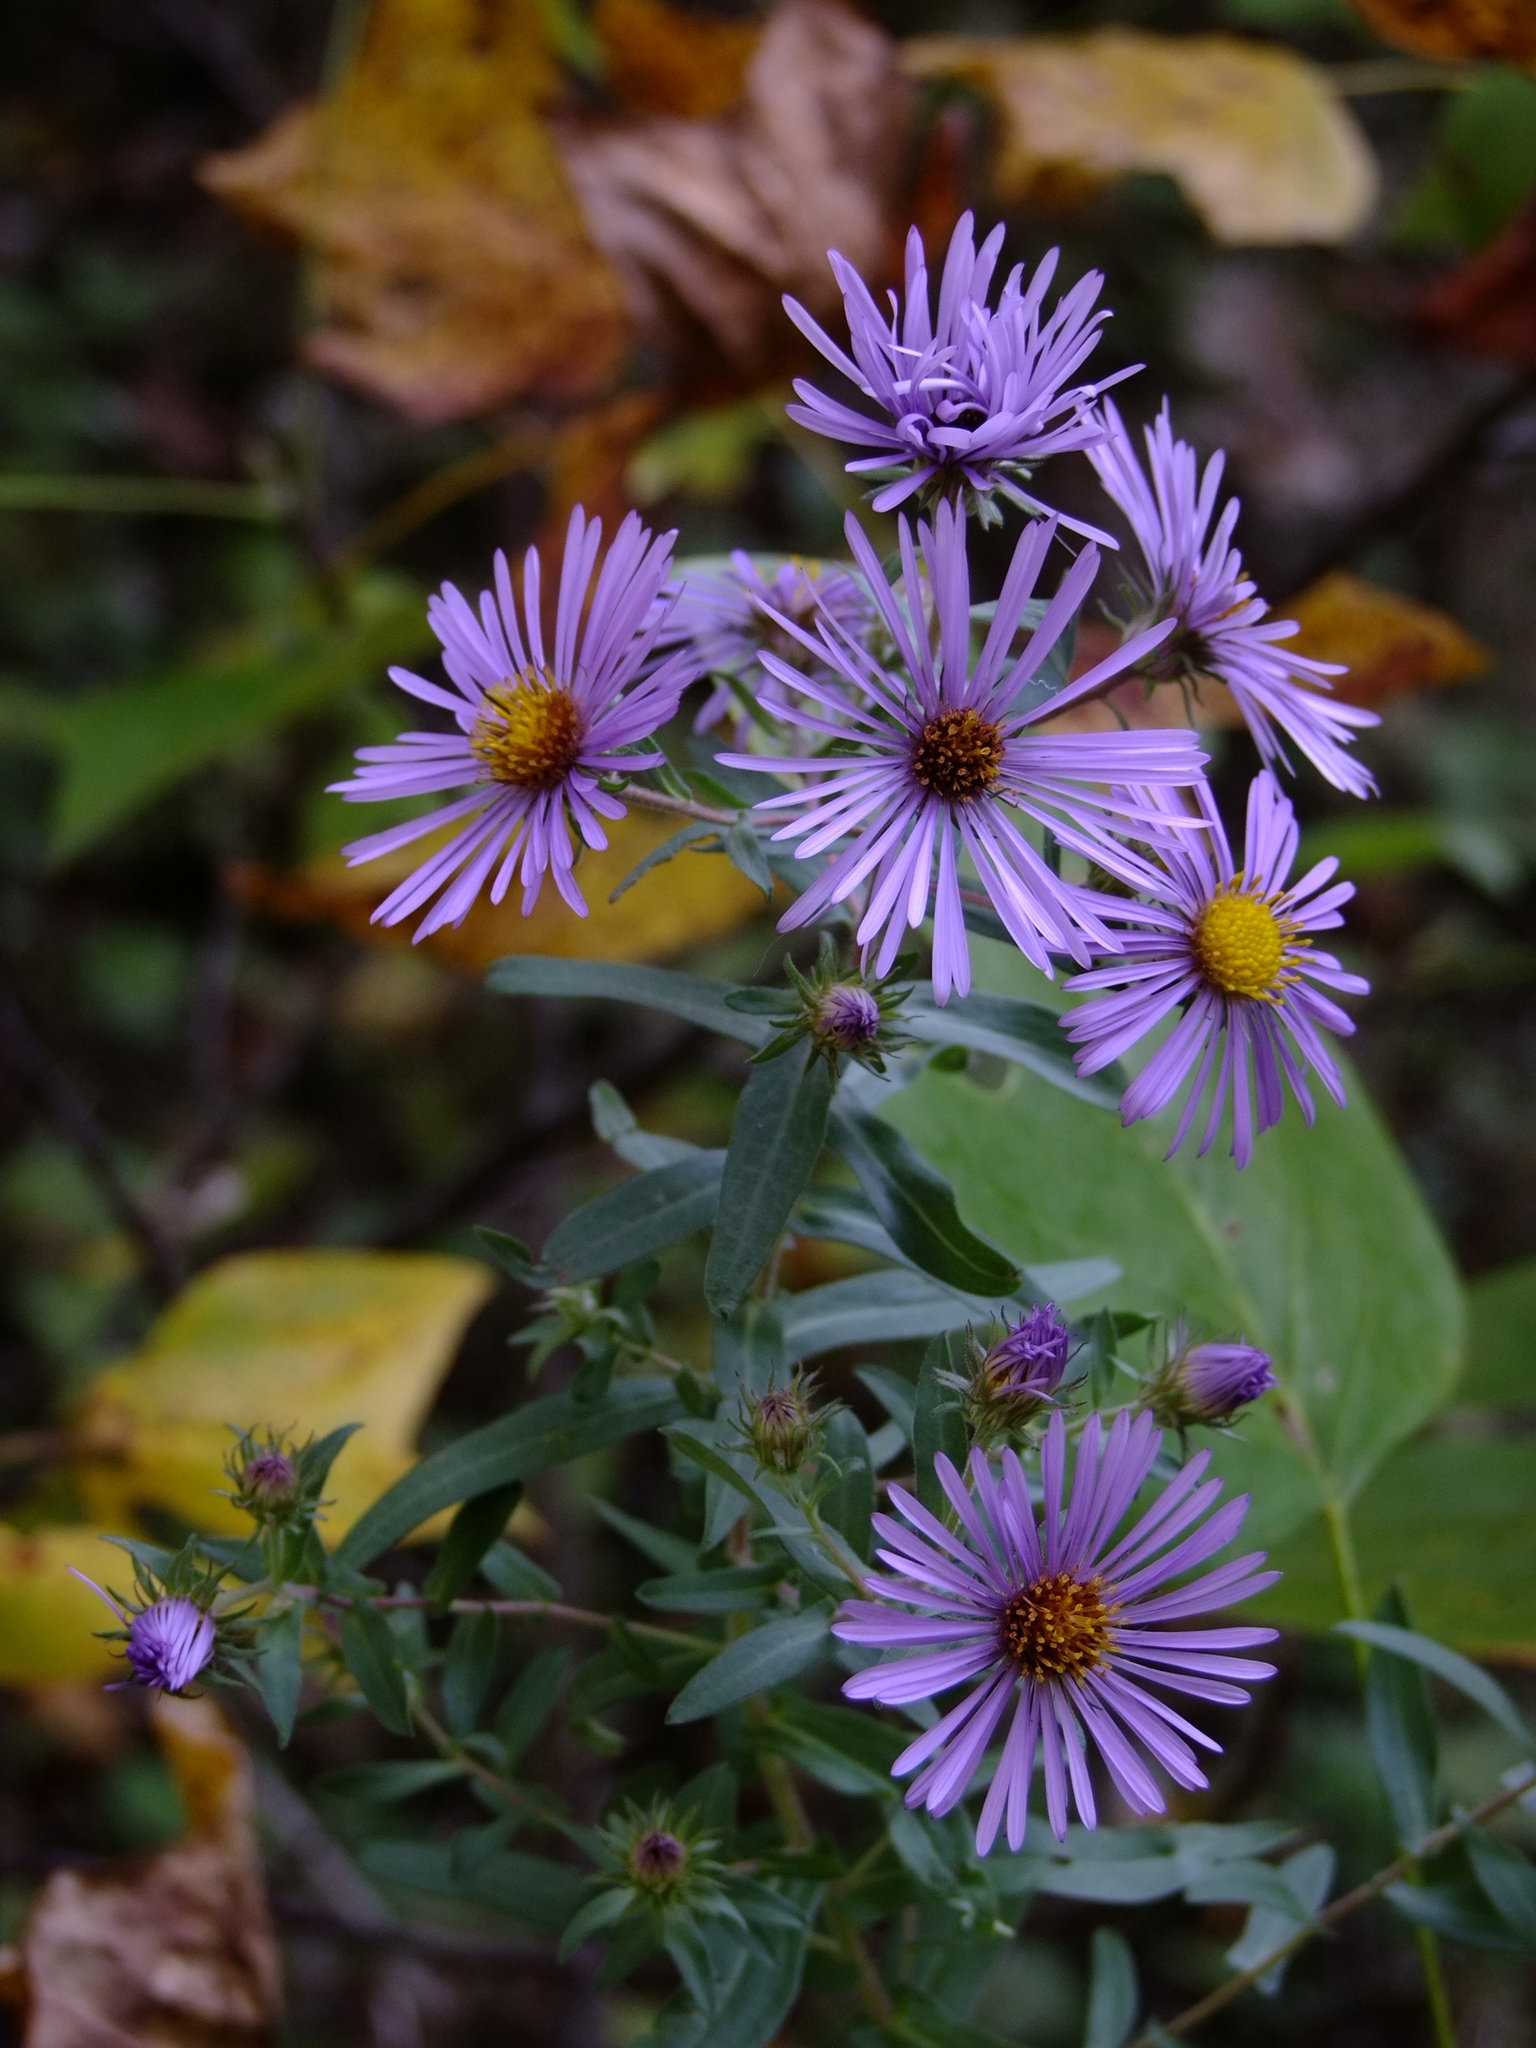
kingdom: Plantae
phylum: Tracheophyta
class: Magnoliopsida
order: Asterales
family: Asteraceae
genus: Symphyotrichum
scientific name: Symphyotrichum novae-angliae
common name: Michaelmas daisy
